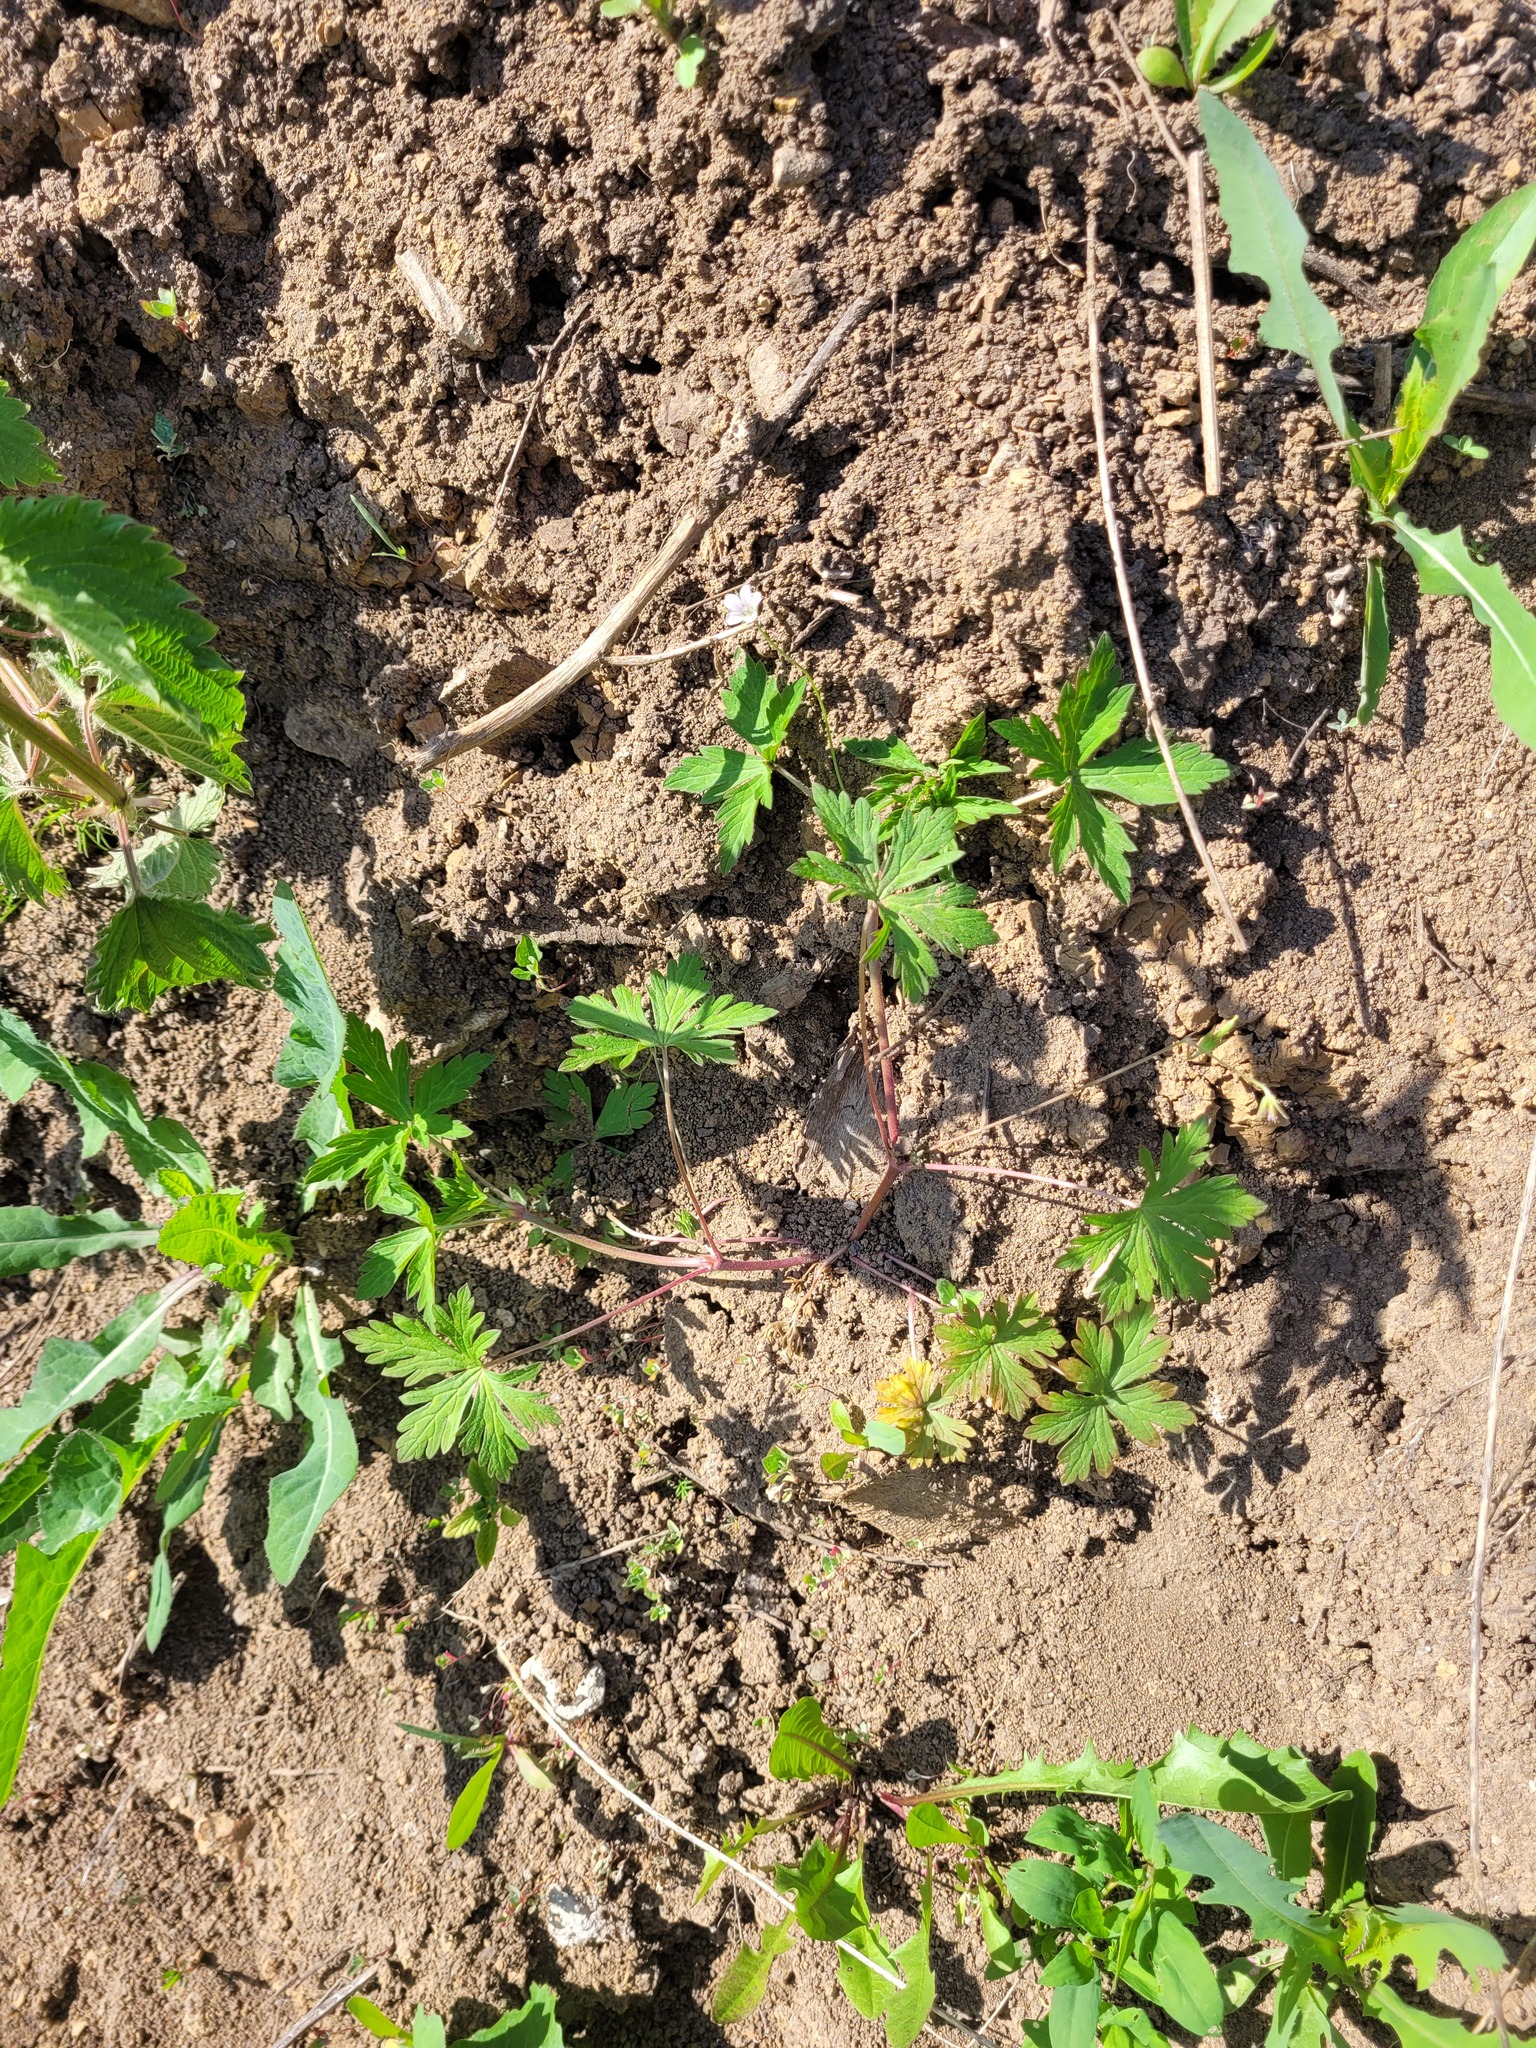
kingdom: Plantae
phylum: Tracheophyta
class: Magnoliopsida
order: Geraniales
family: Geraniaceae
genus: Geranium
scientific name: Geranium sibiricum
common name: Siberian crane's-bill
